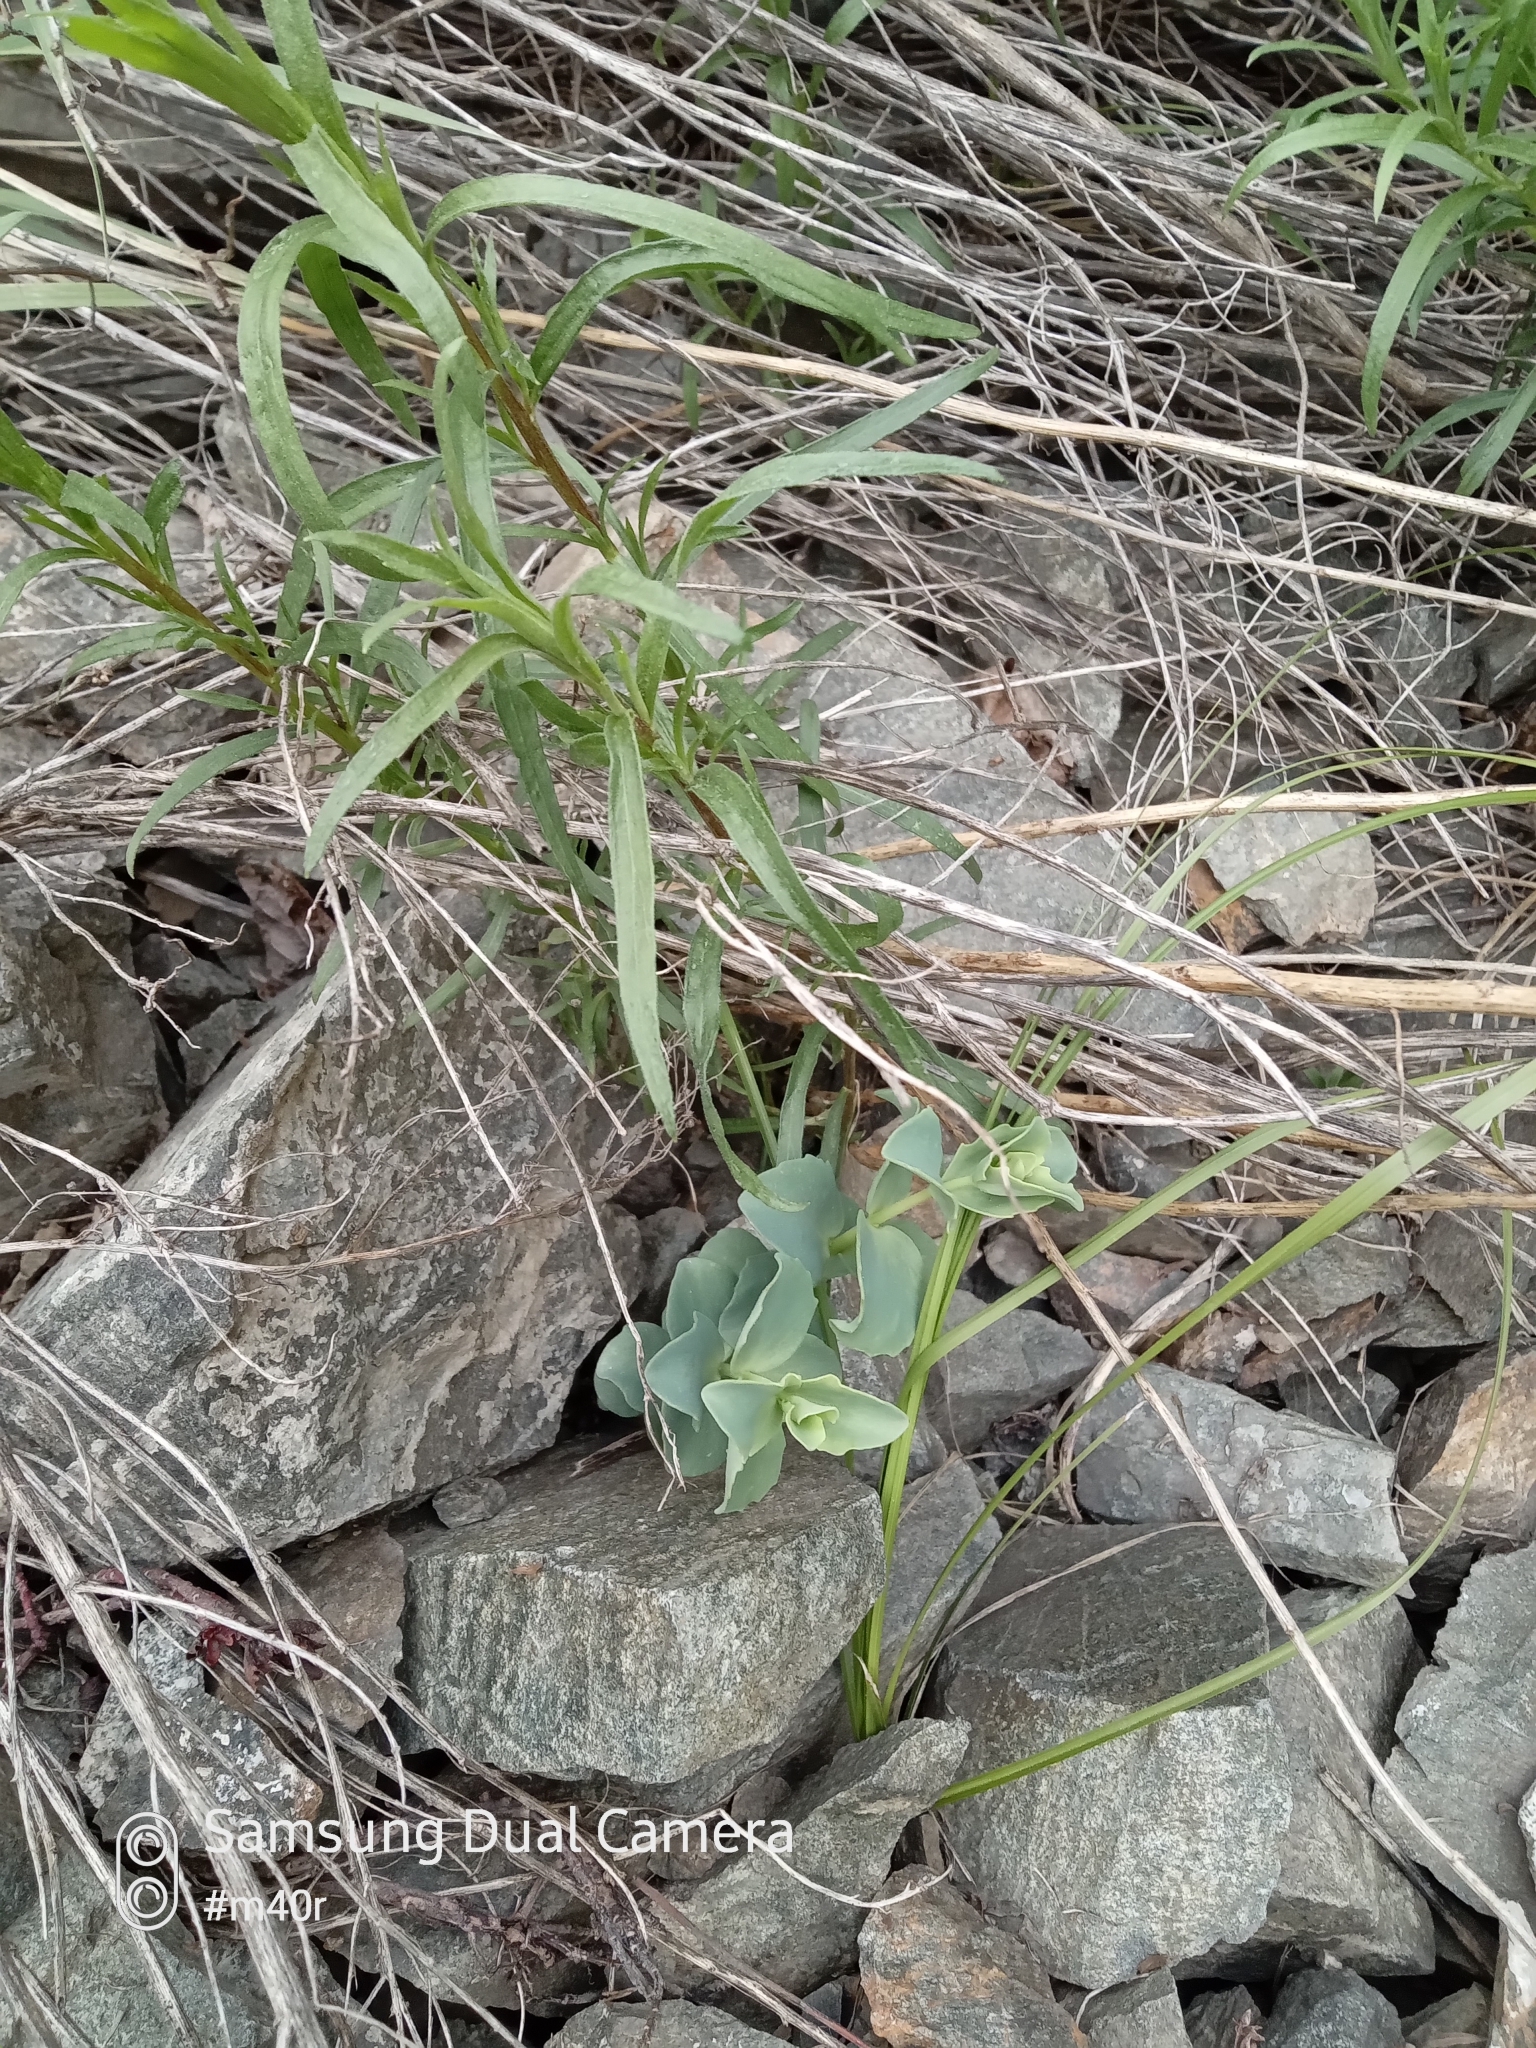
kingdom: Plantae
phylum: Tracheophyta
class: Magnoliopsida
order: Saxifragales
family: Crassulaceae
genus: Hylotelephium
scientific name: Hylotelephium ewersii
